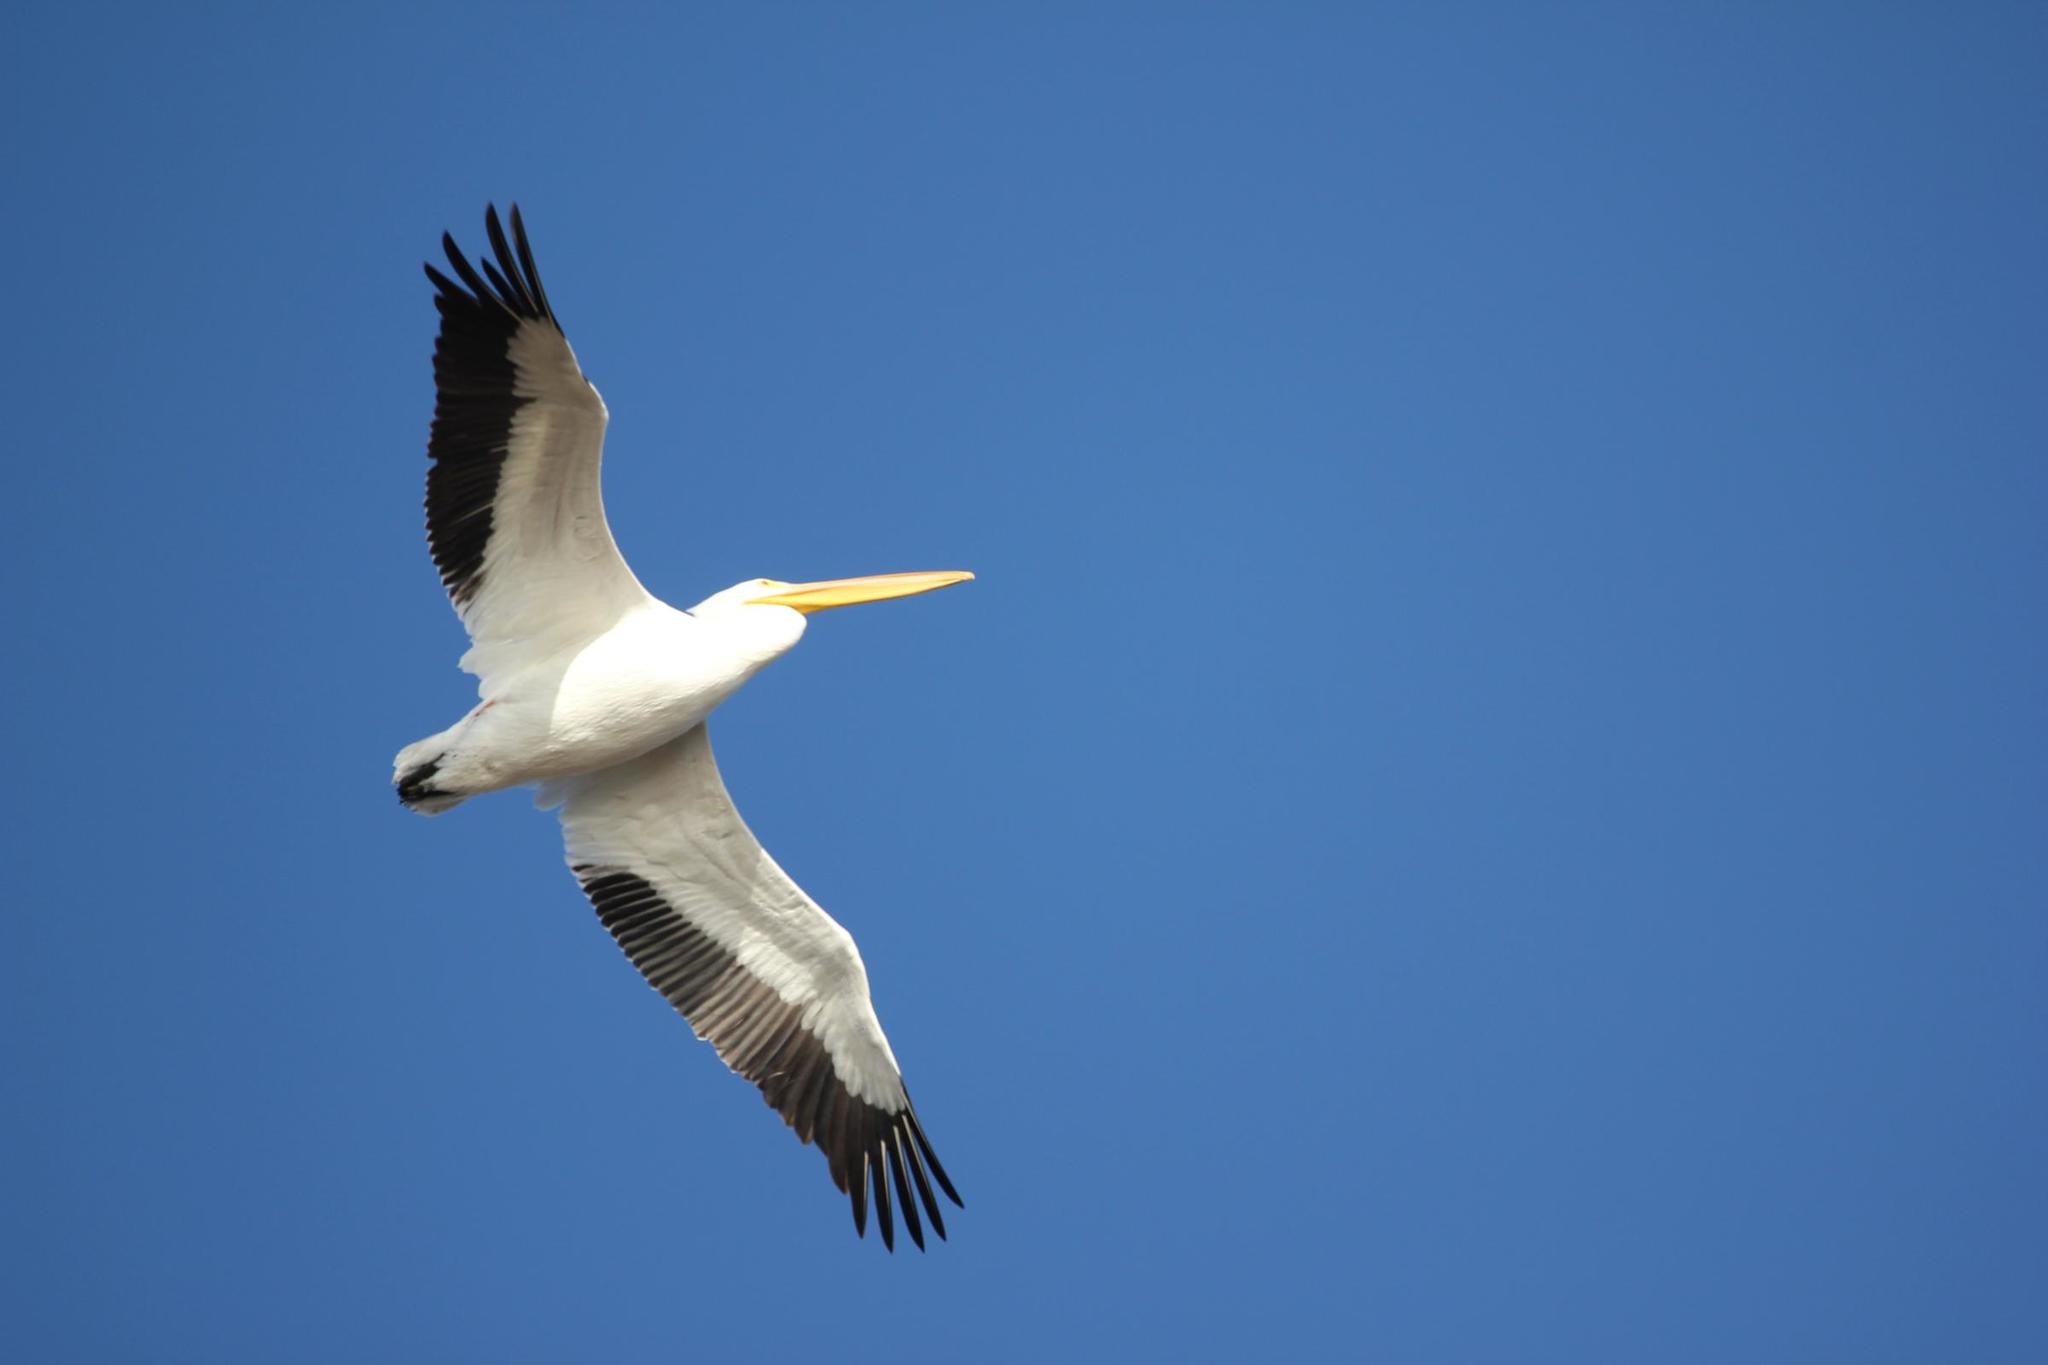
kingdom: Animalia
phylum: Chordata
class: Aves
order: Pelecaniformes
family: Pelecanidae
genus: Pelecanus
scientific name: Pelecanus erythrorhynchos
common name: American white pelican
